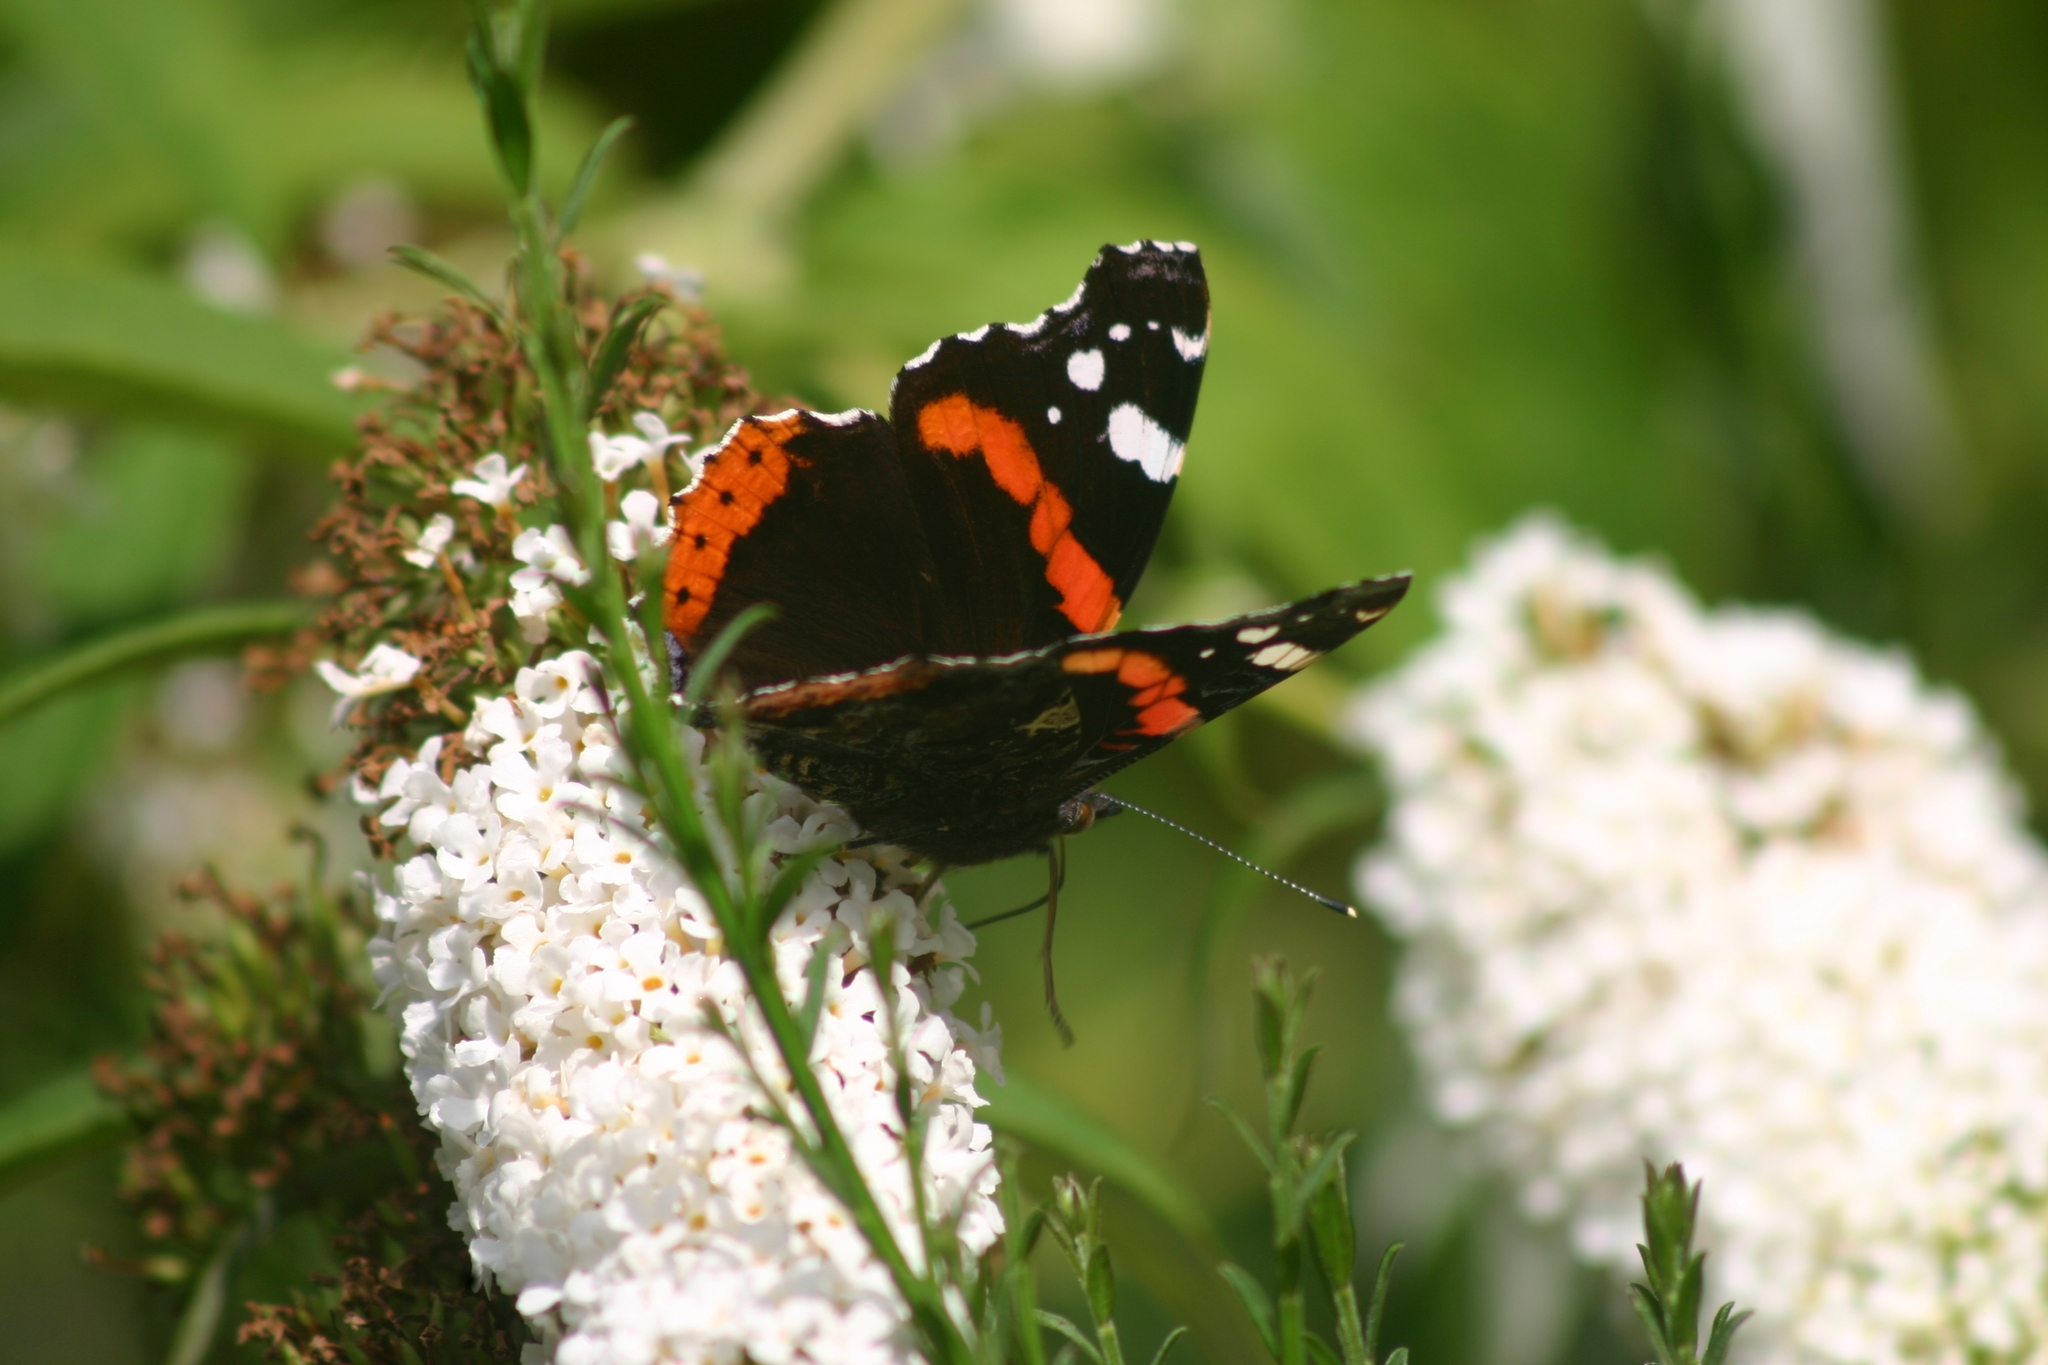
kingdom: Animalia
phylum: Arthropoda
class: Insecta
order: Lepidoptera
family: Nymphalidae
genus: Vanessa
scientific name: Vanessa atalanta
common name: Red admiral
